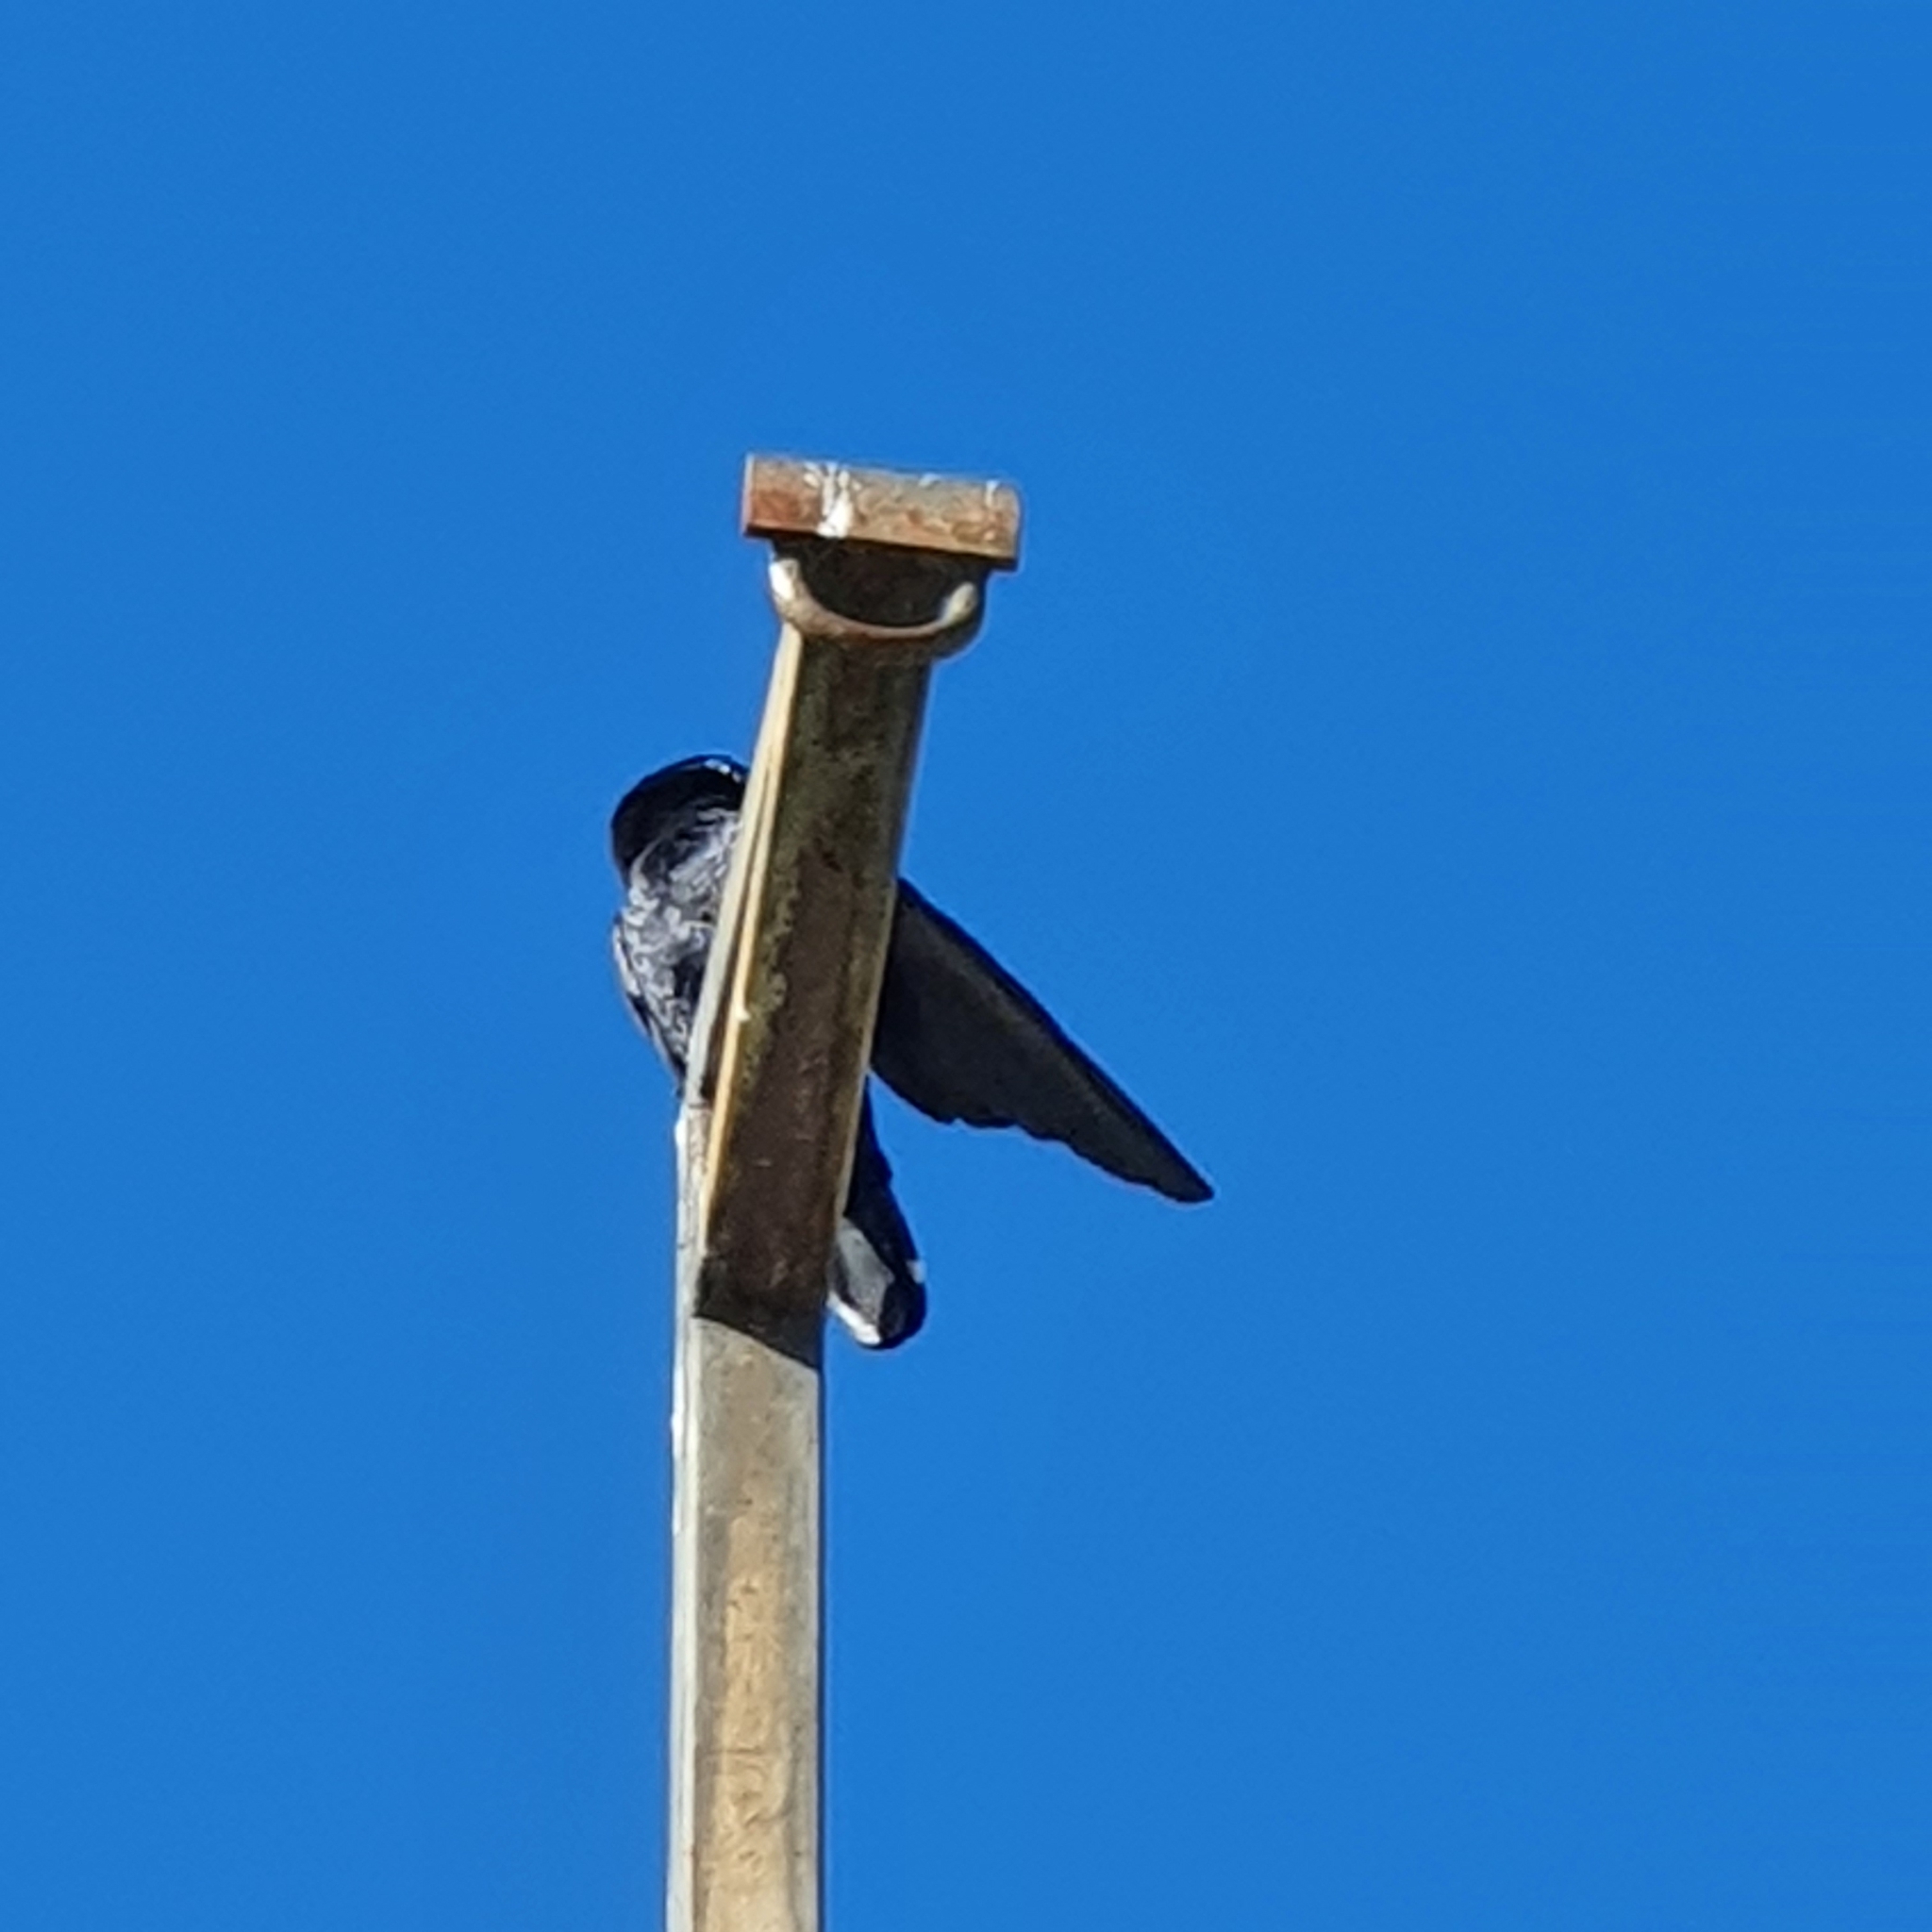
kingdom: Animalia
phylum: Chordata
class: Aves
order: Passeriformes
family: Corvidae
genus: Corvus
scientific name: Corvus orru
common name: Torresian crow
